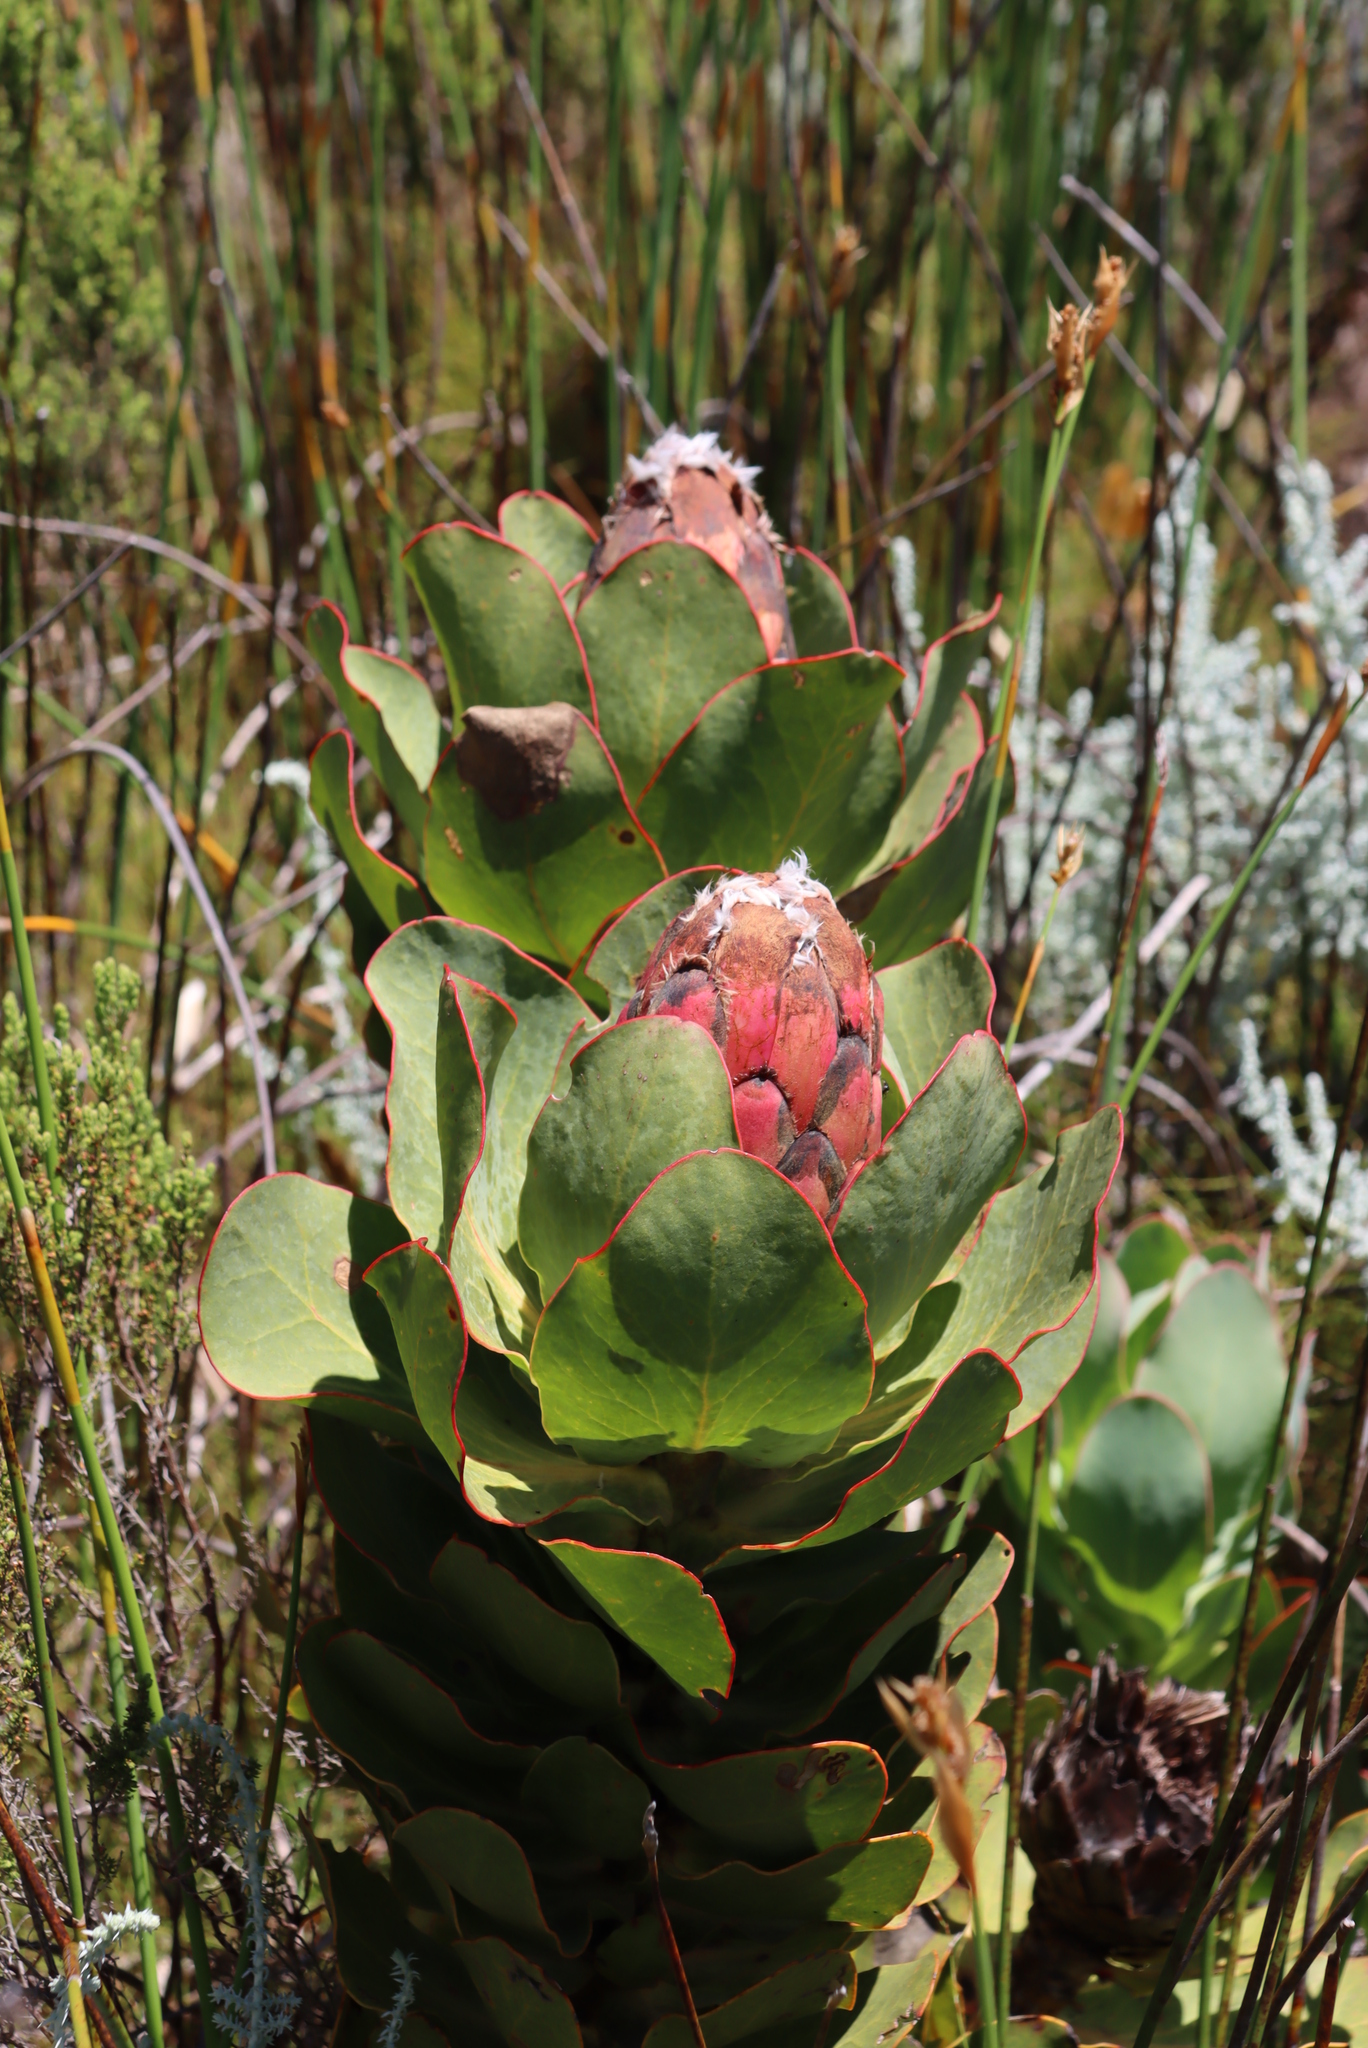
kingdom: Plantae
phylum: Tracheophyta
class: Magnoliopsida
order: Proteales
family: Proteaceae
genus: Protea
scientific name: Protea grandiceps
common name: Red sugarbush
